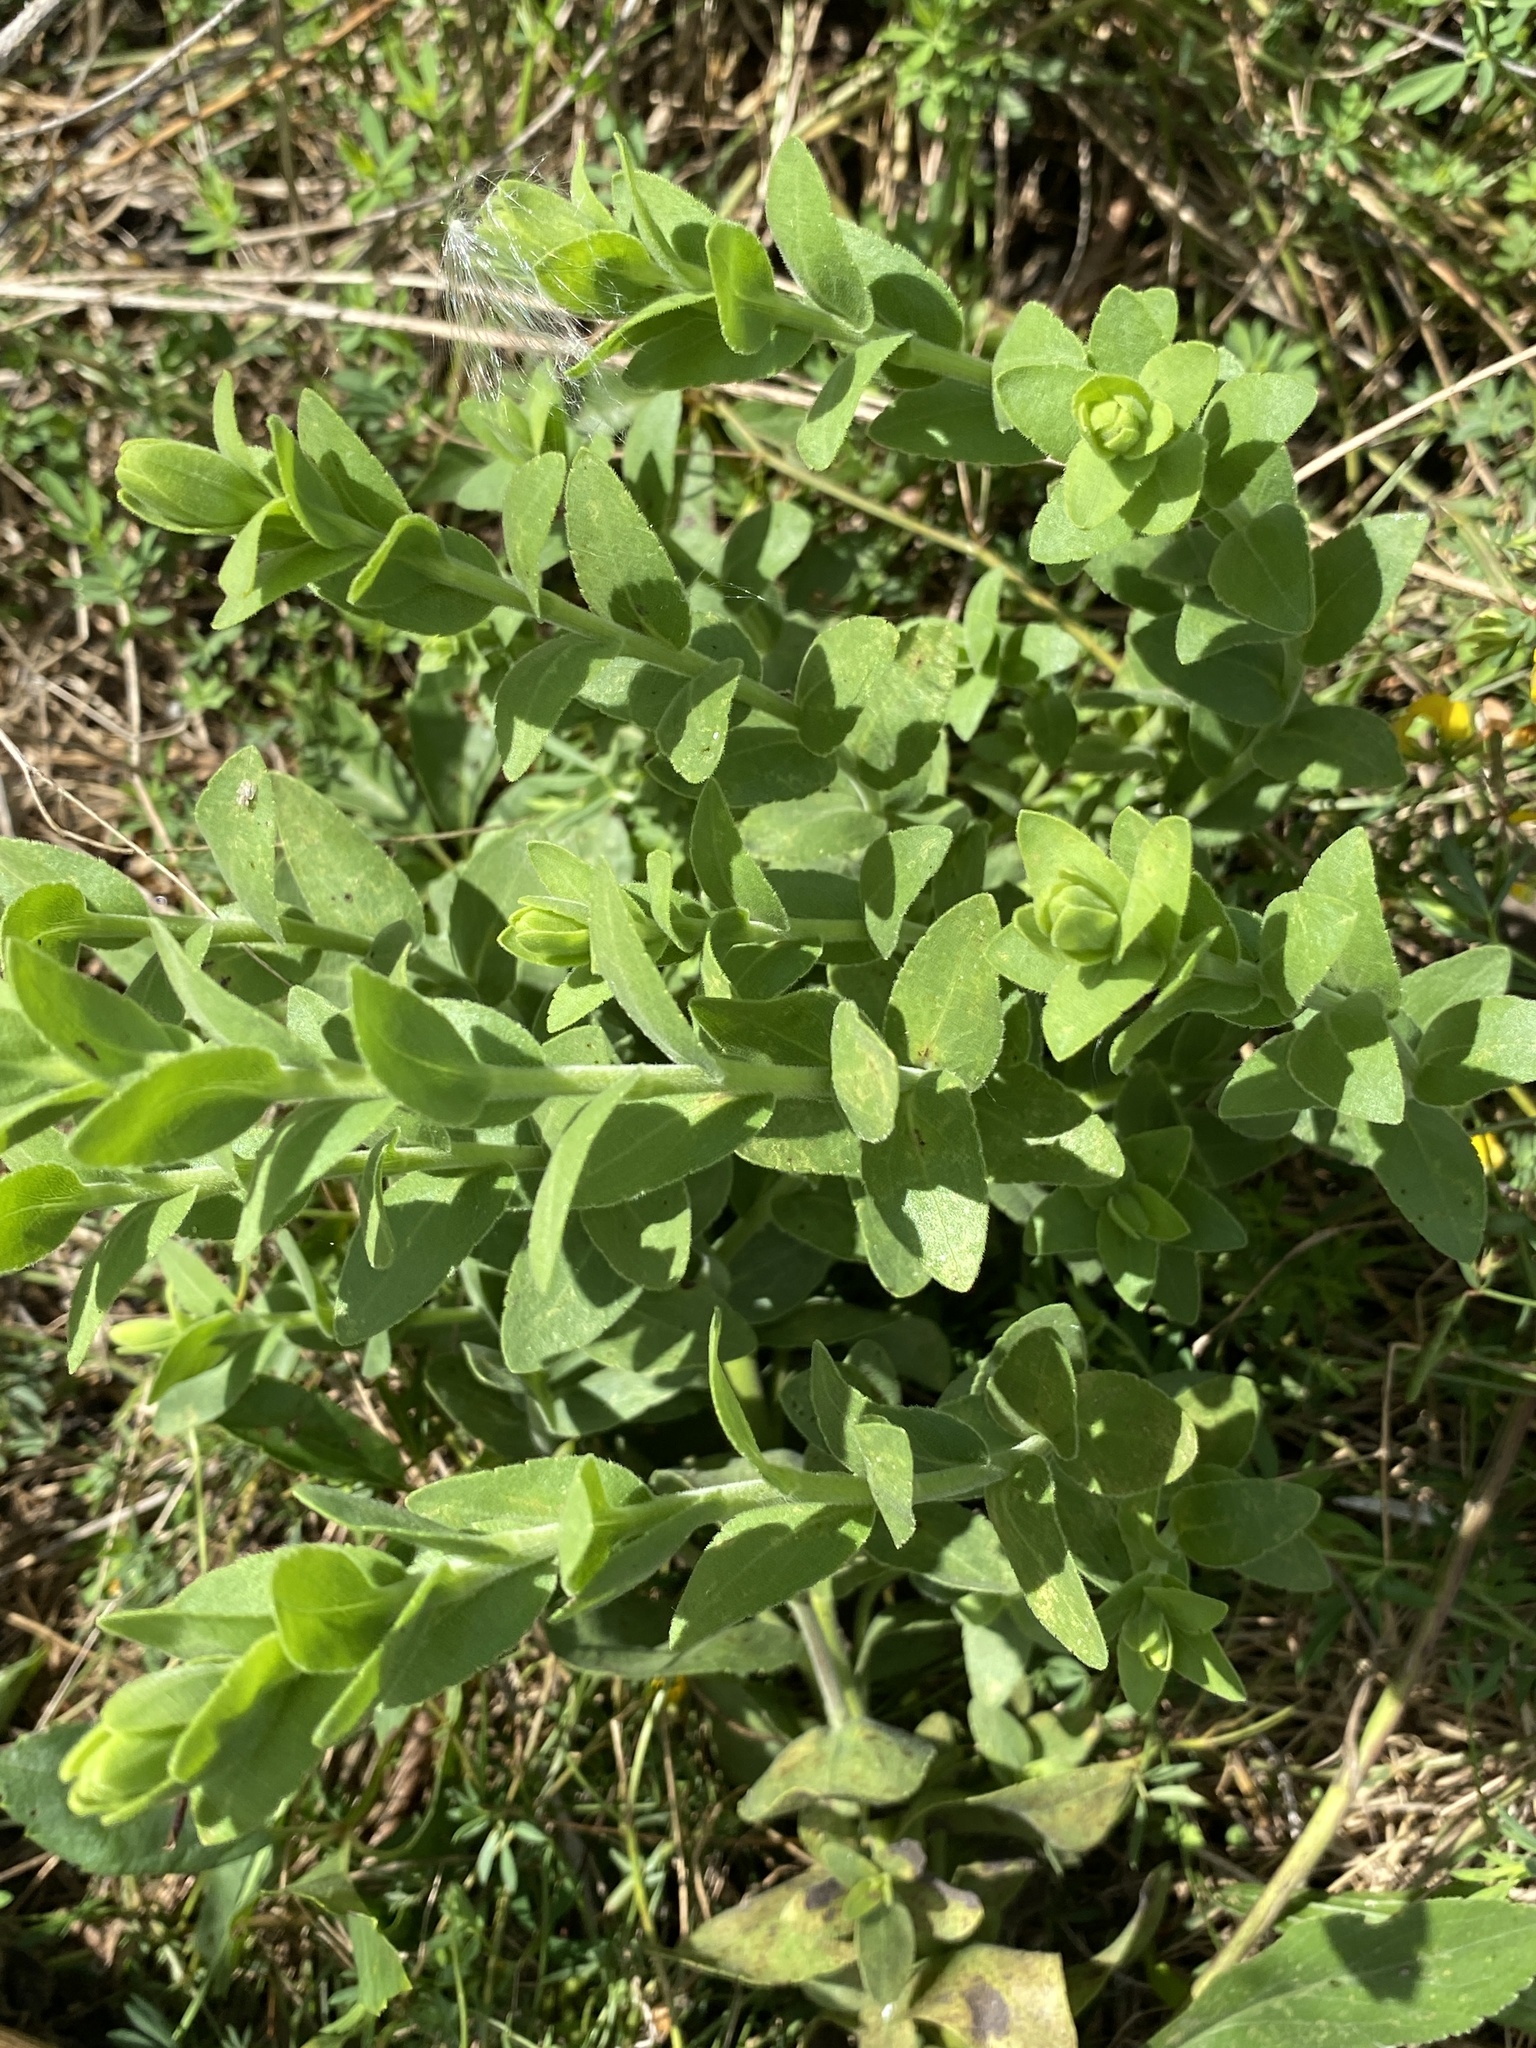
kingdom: Plantae
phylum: Tracheophyta
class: Magnoliopsida
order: Asterales
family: Asteraceae
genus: Solidago
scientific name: Solidago rigida
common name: Rigid goldenrod
